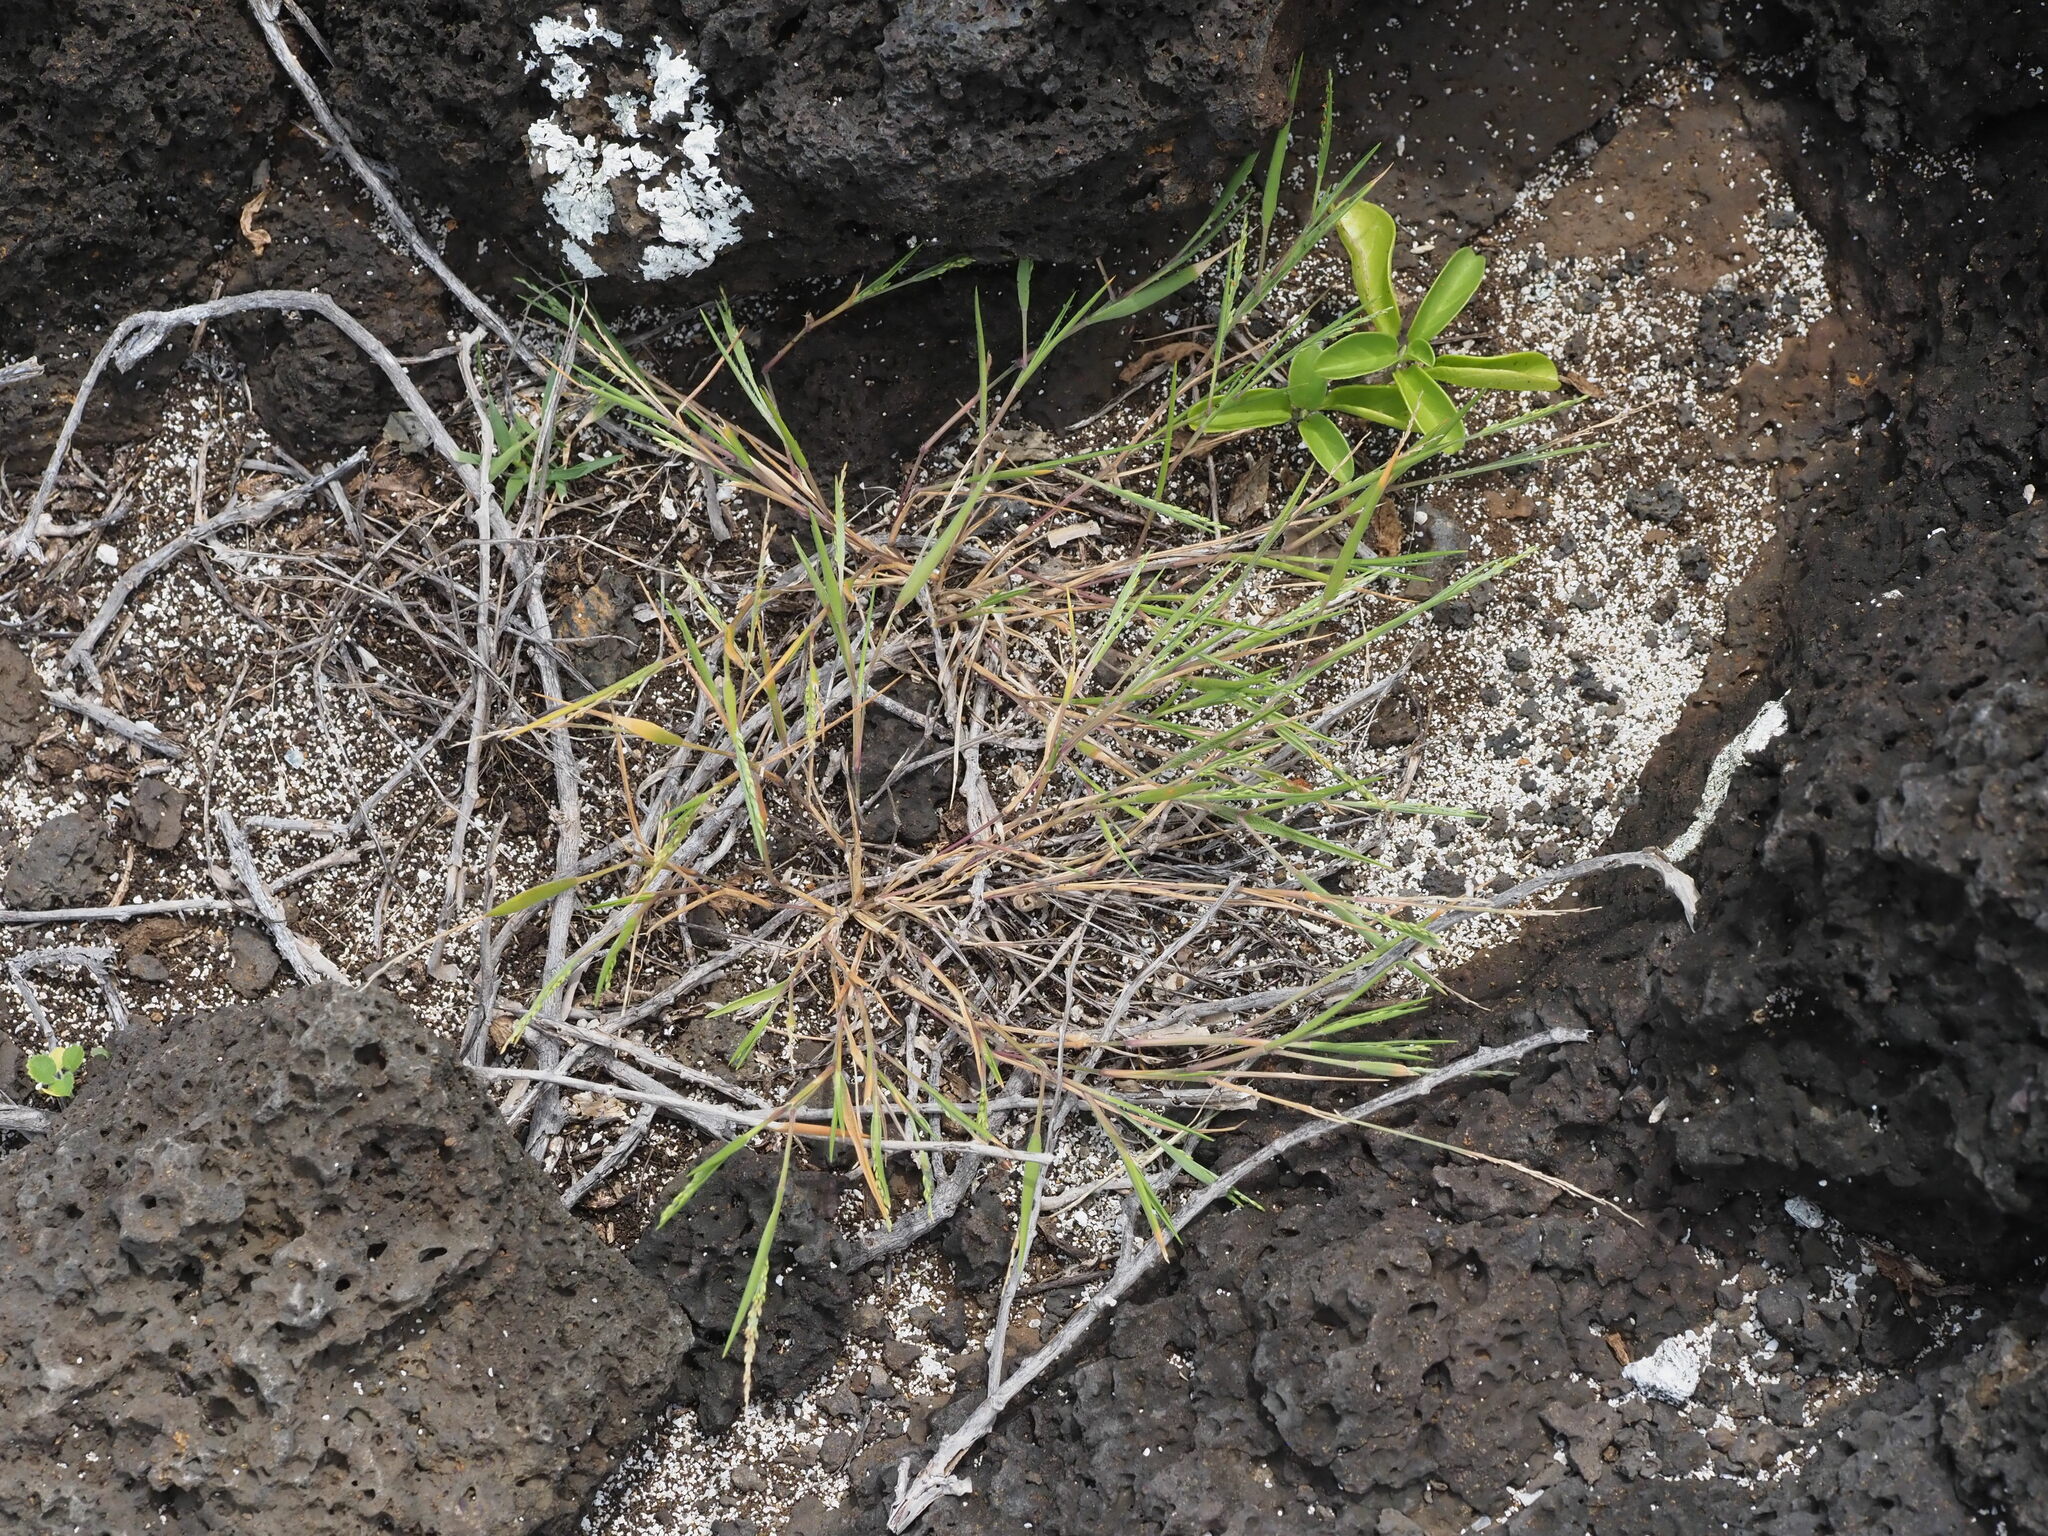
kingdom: Plantae
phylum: Tracheophyta
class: Liliopsida
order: Poales
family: Poaceae
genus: Panicum
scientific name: Panicum fauriei
